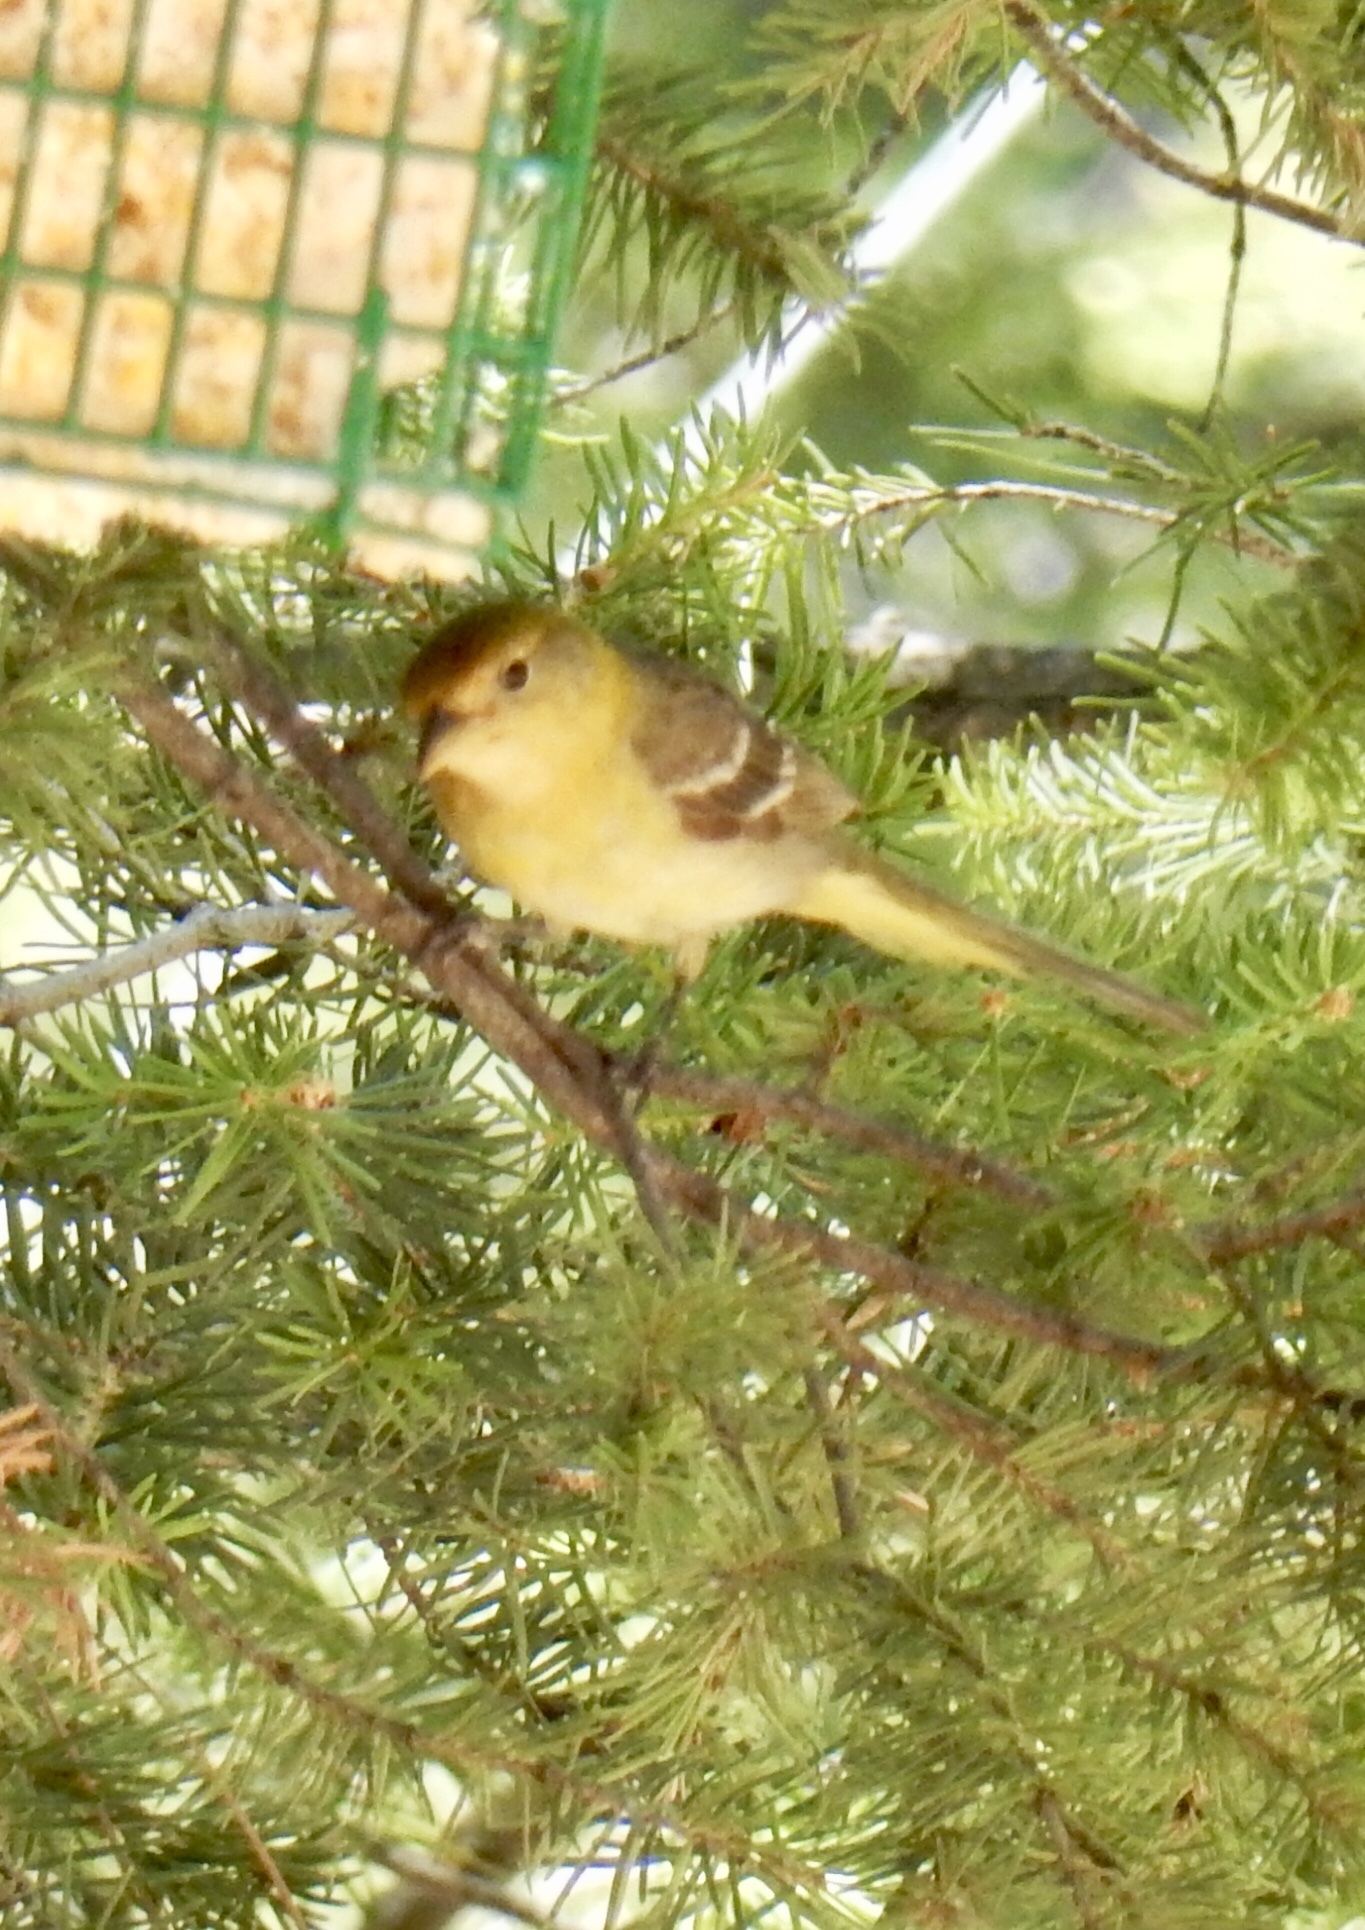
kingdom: Animalia
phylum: Chordata
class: Aves
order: Passeriformes
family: Cardinalidae
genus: Piranga
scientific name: Piranga ludoviciana
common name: Western tanager
